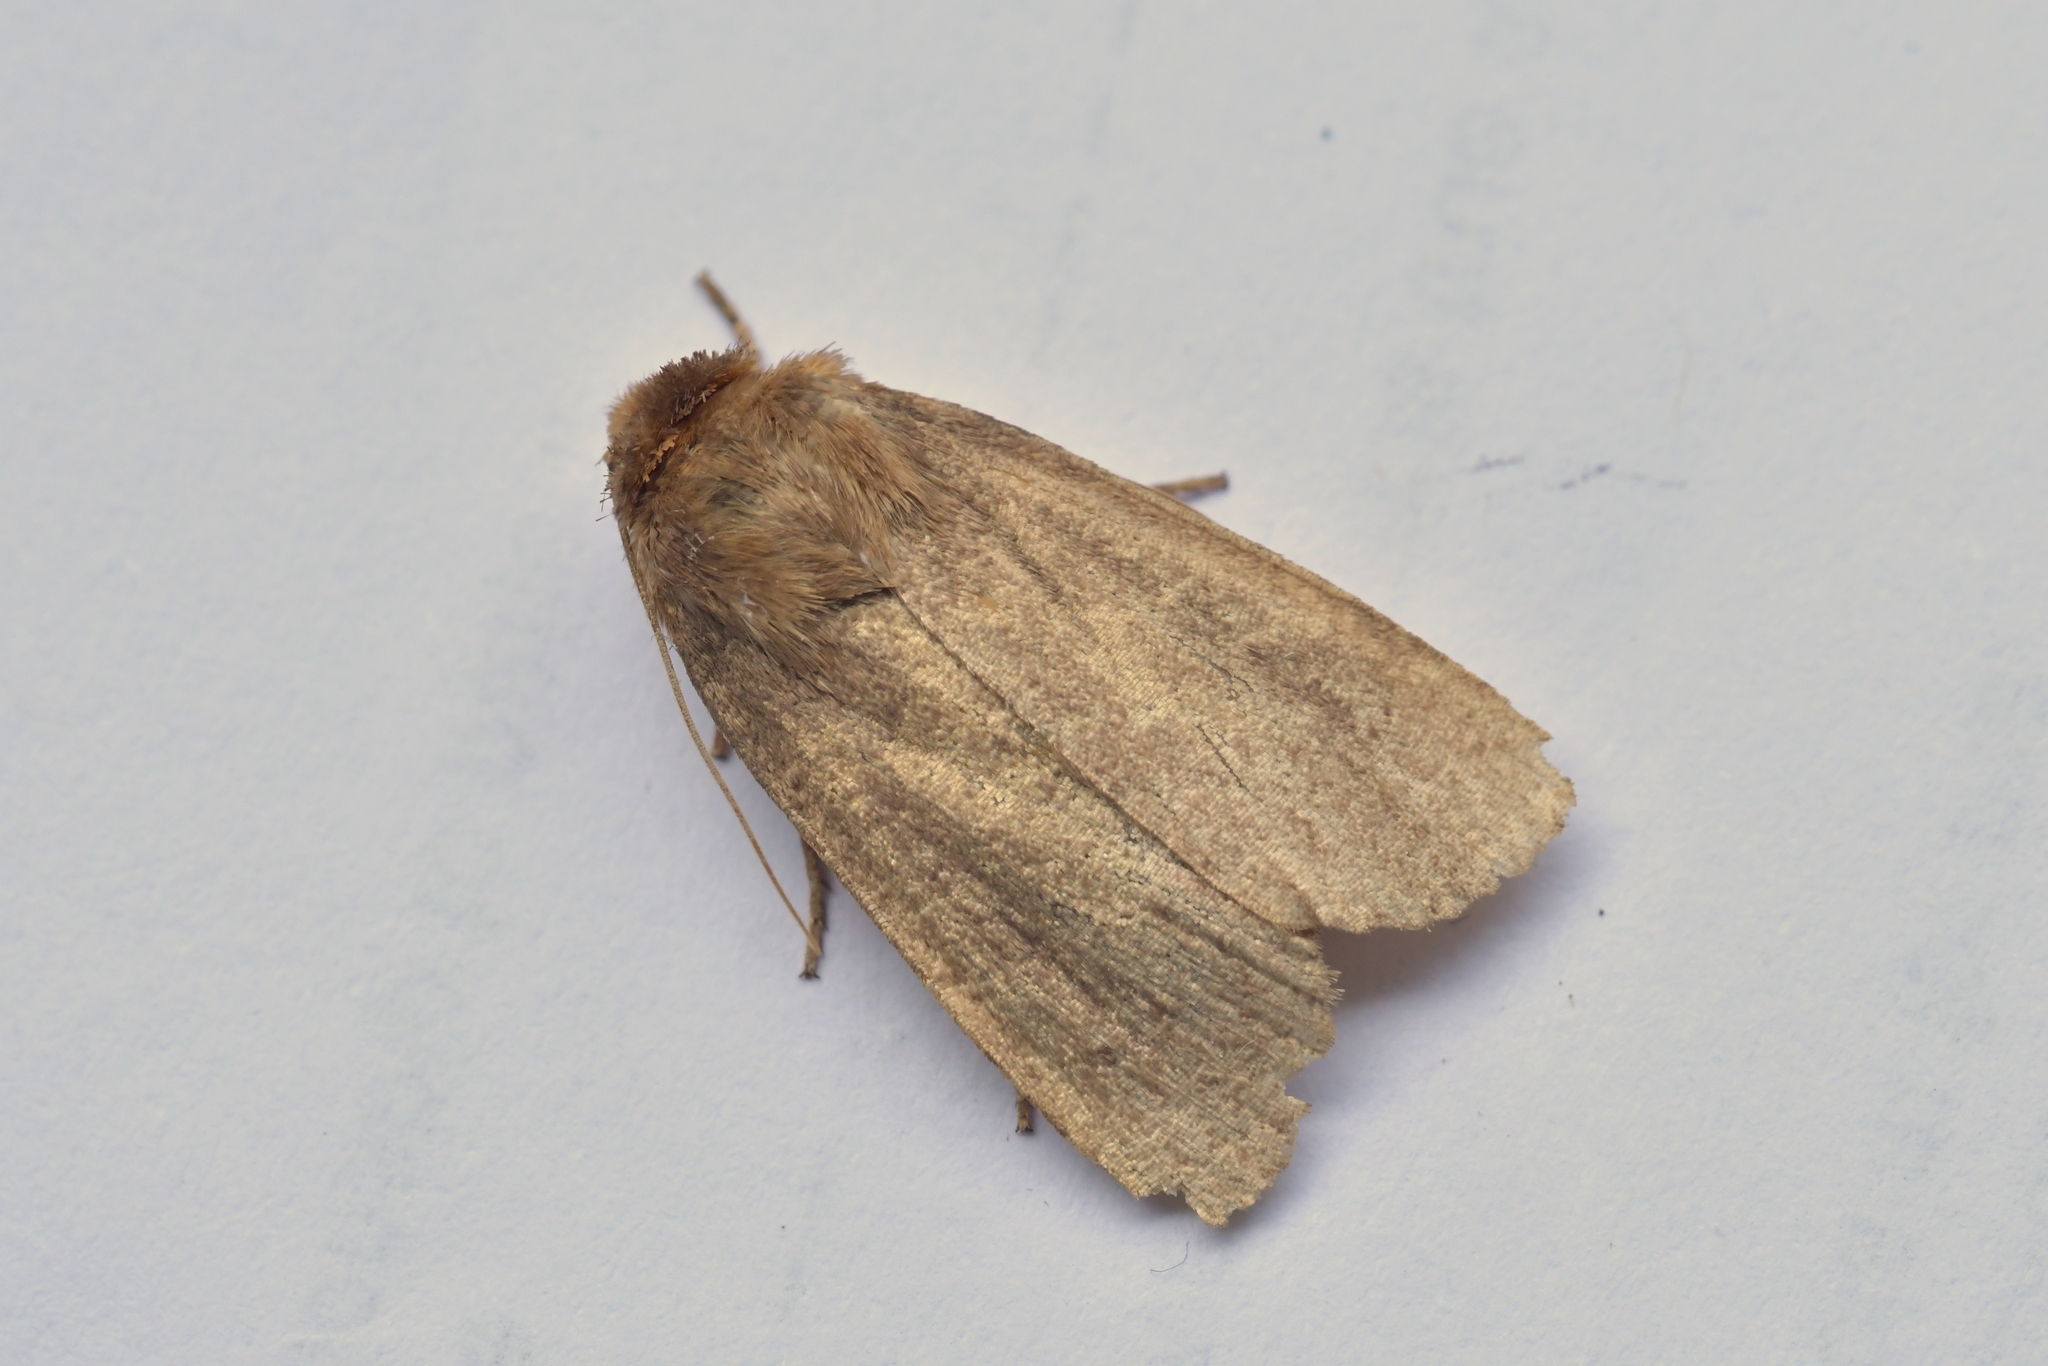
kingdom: Animalia
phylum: Arthropoda
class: Insecta
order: Lepidoptera
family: Noctuidae
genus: Bityla
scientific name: Bityla defigurata
